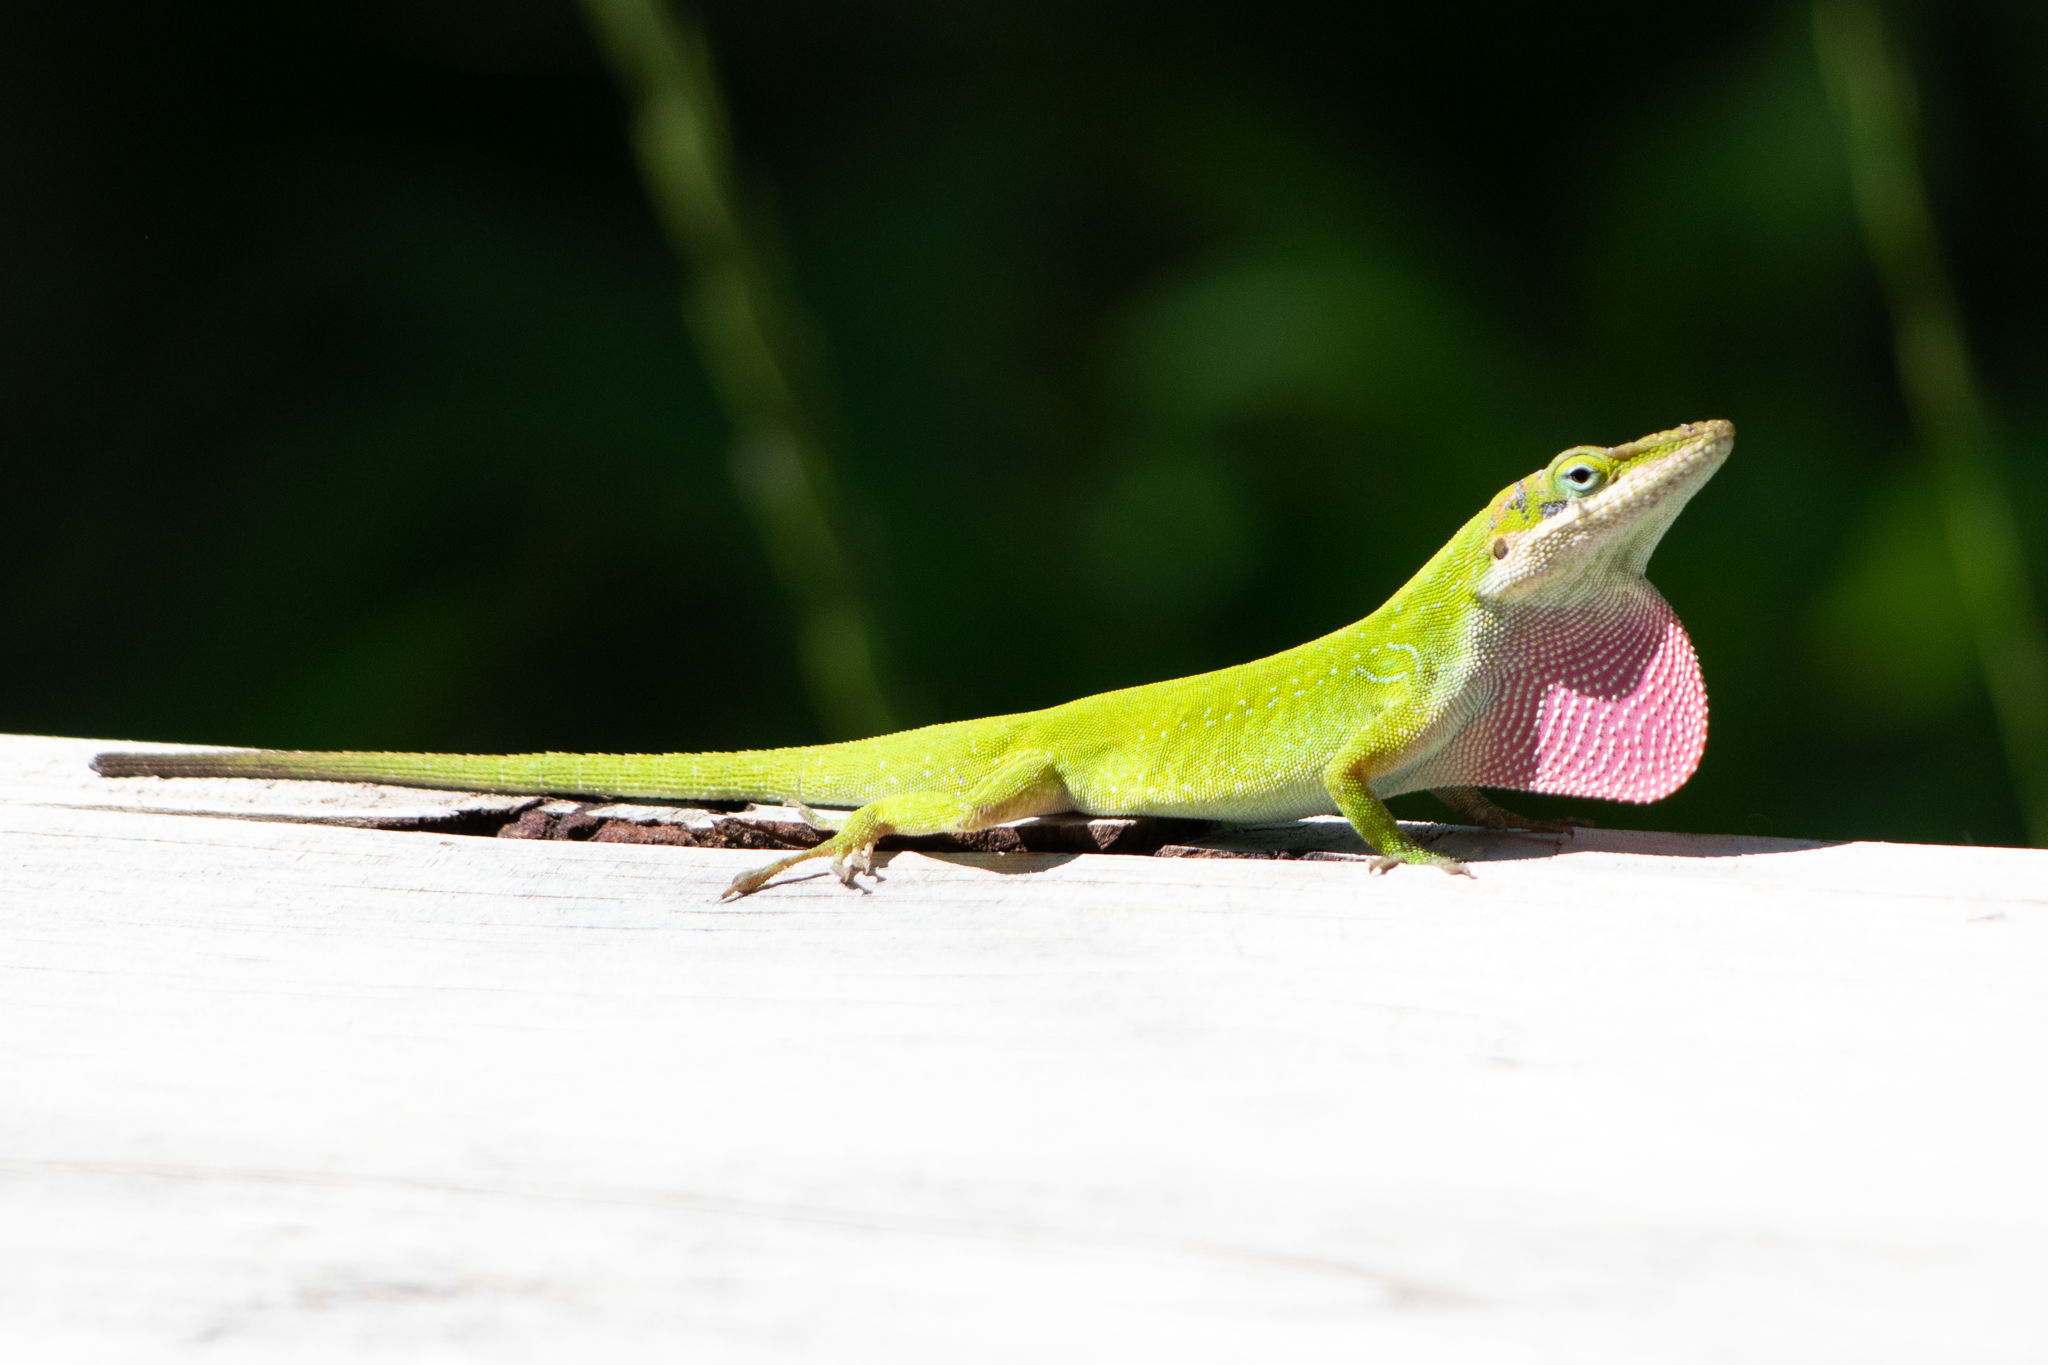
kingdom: Animalia
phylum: Chordata
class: Squamata
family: Dactyloidae
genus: Anolis
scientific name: Anolis carolinensis
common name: Green anole
